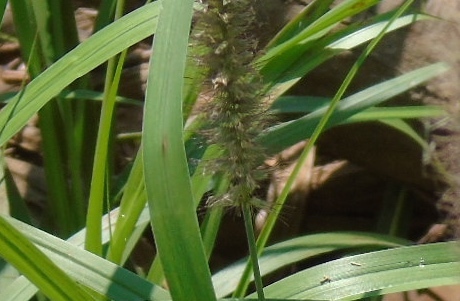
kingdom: Plantae
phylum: Tracheophyta
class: Liliopsida
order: Poales
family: Poaceae
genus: Cenchrus
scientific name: Cenchrus ciliaris
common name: Buffelgrass
